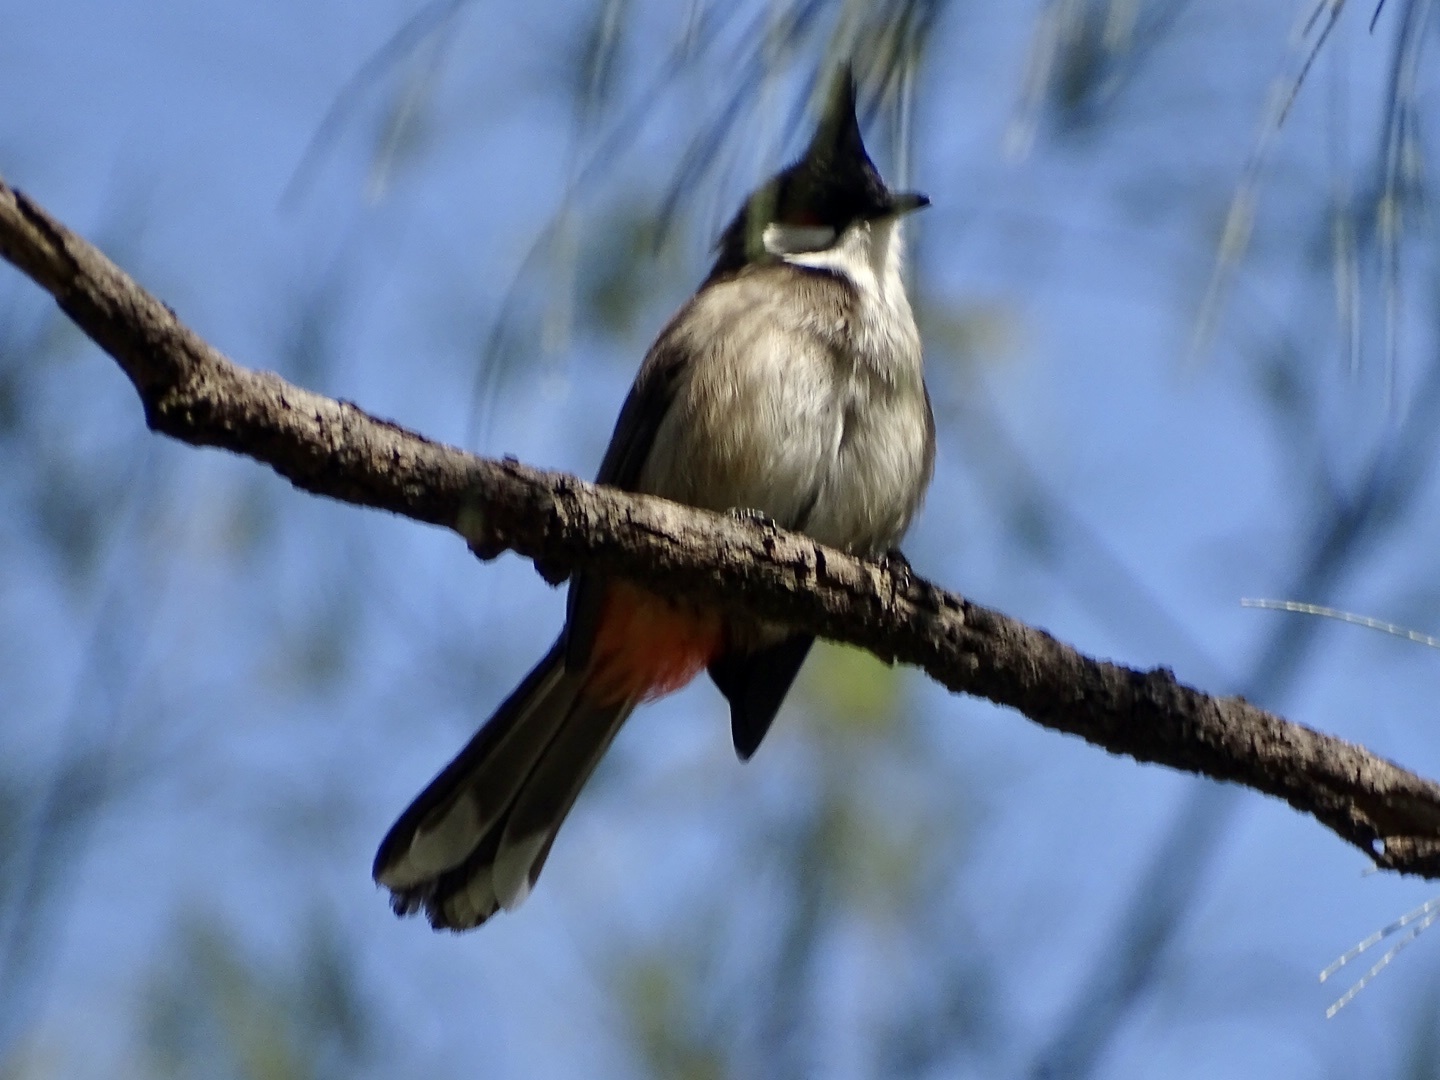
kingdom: Animalia
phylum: Chordata
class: Aves
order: Passeriformes
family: Pycnonotidae
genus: Pycnonotus
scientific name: Pycnonotus jocosus
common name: Red-whiskered bulbul
